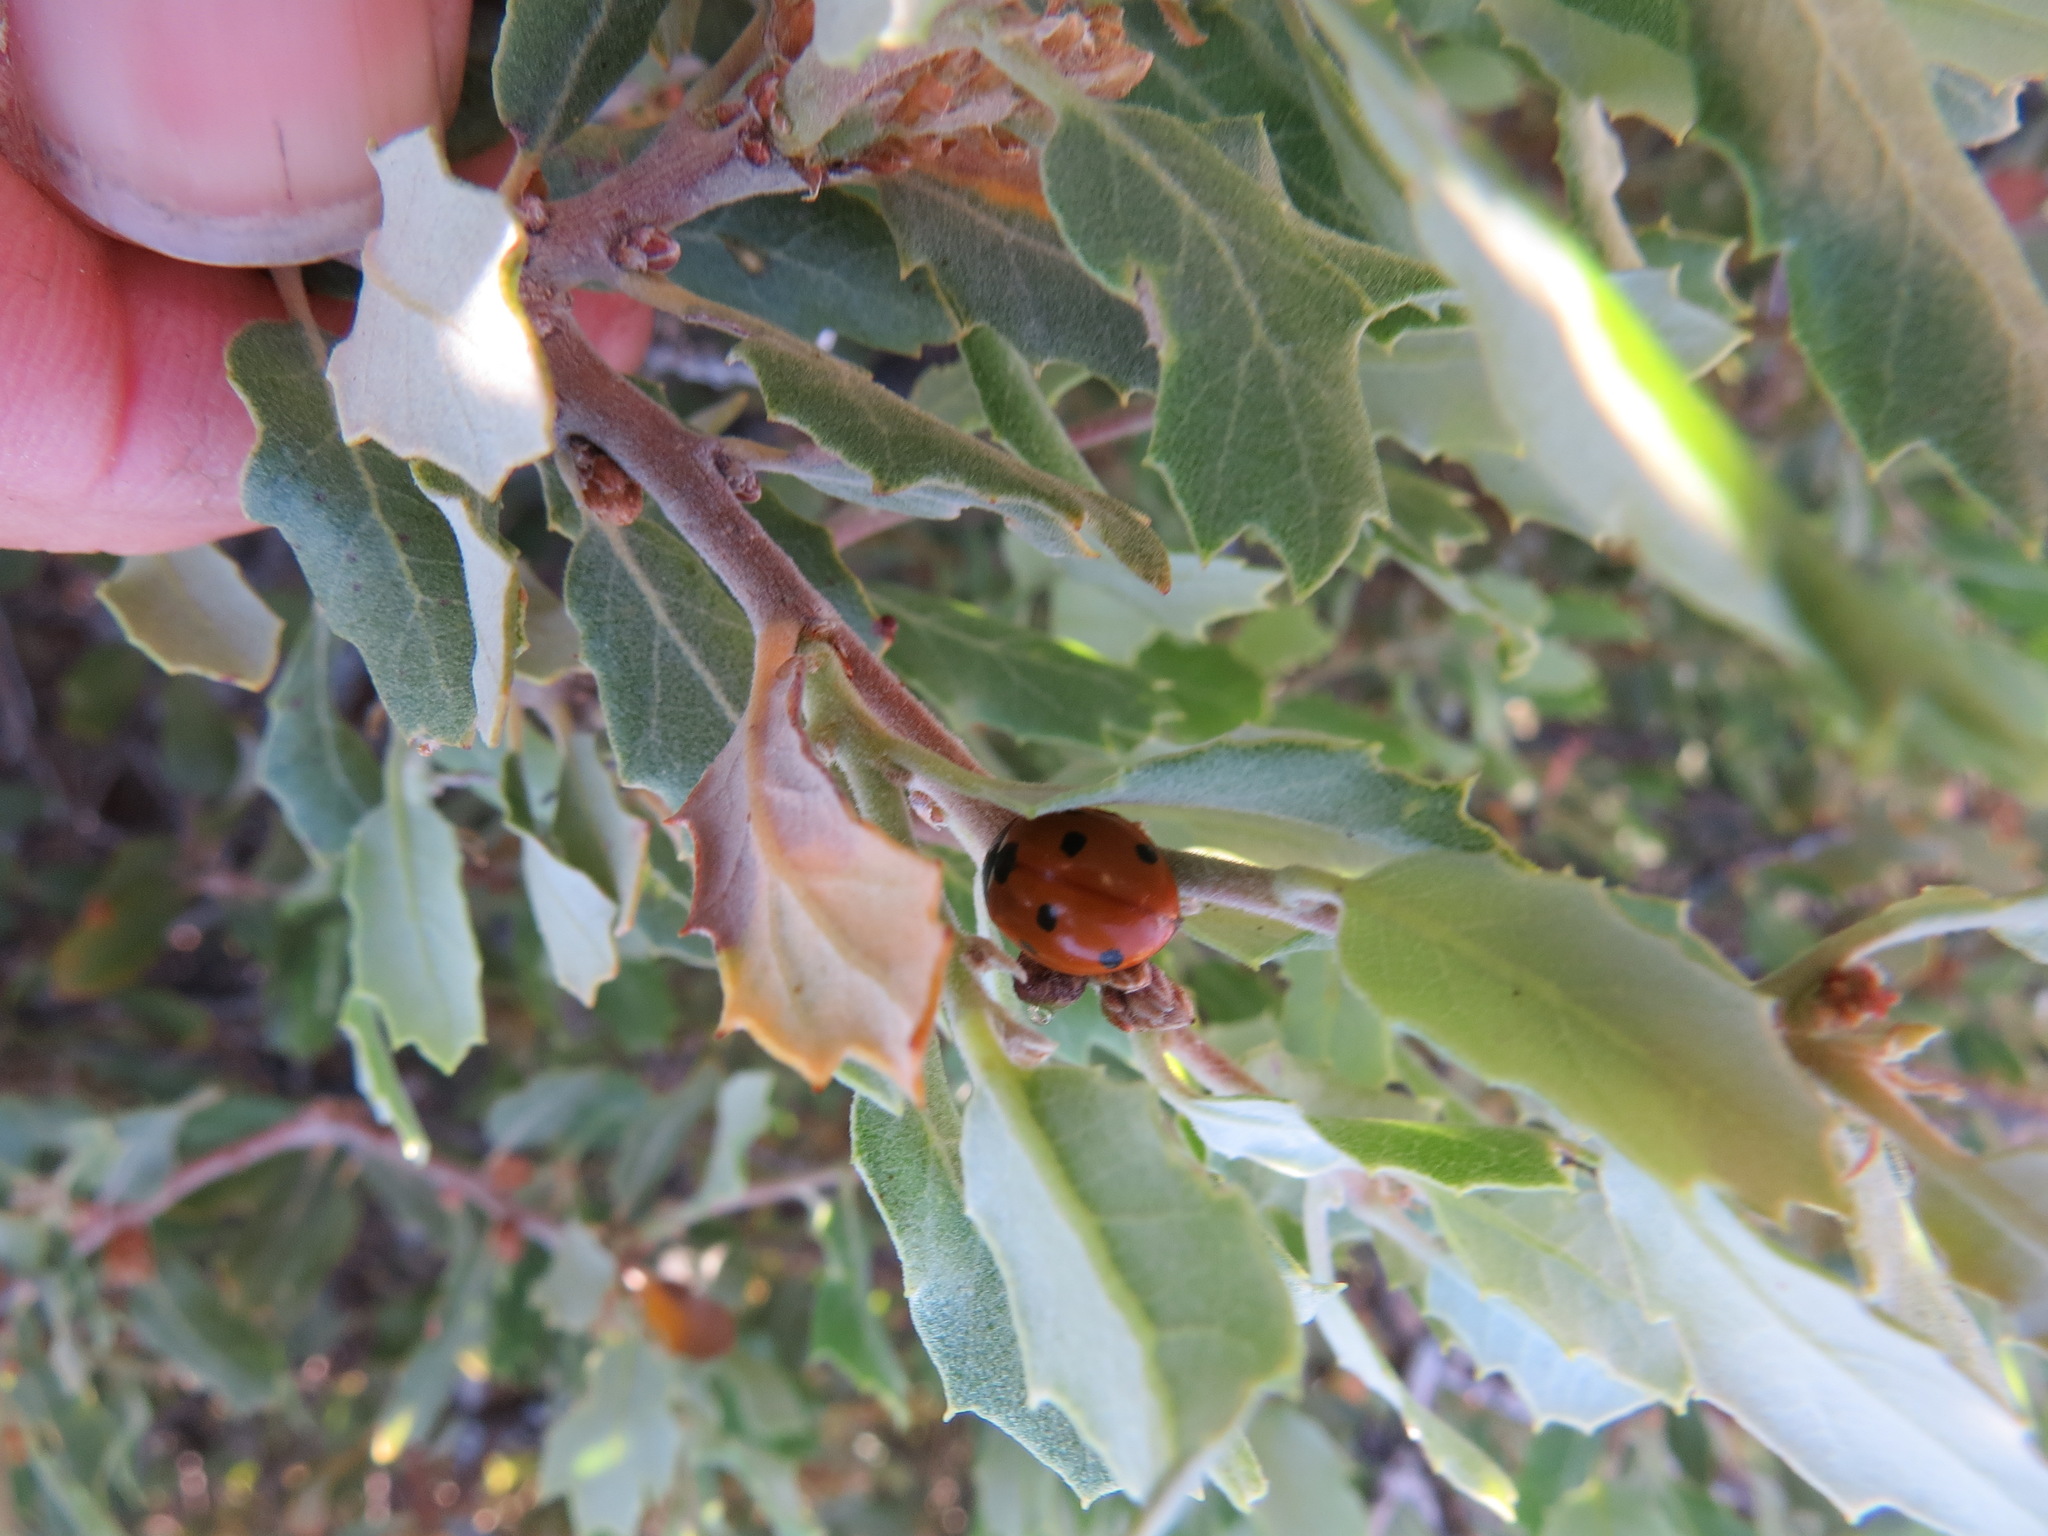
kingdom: Animalia
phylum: Arthropoda
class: Insecta
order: Coleoptera
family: Coccinellidae
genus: Coccinella
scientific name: Coccinella septempunctata
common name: Sevenspotted lady beetle
